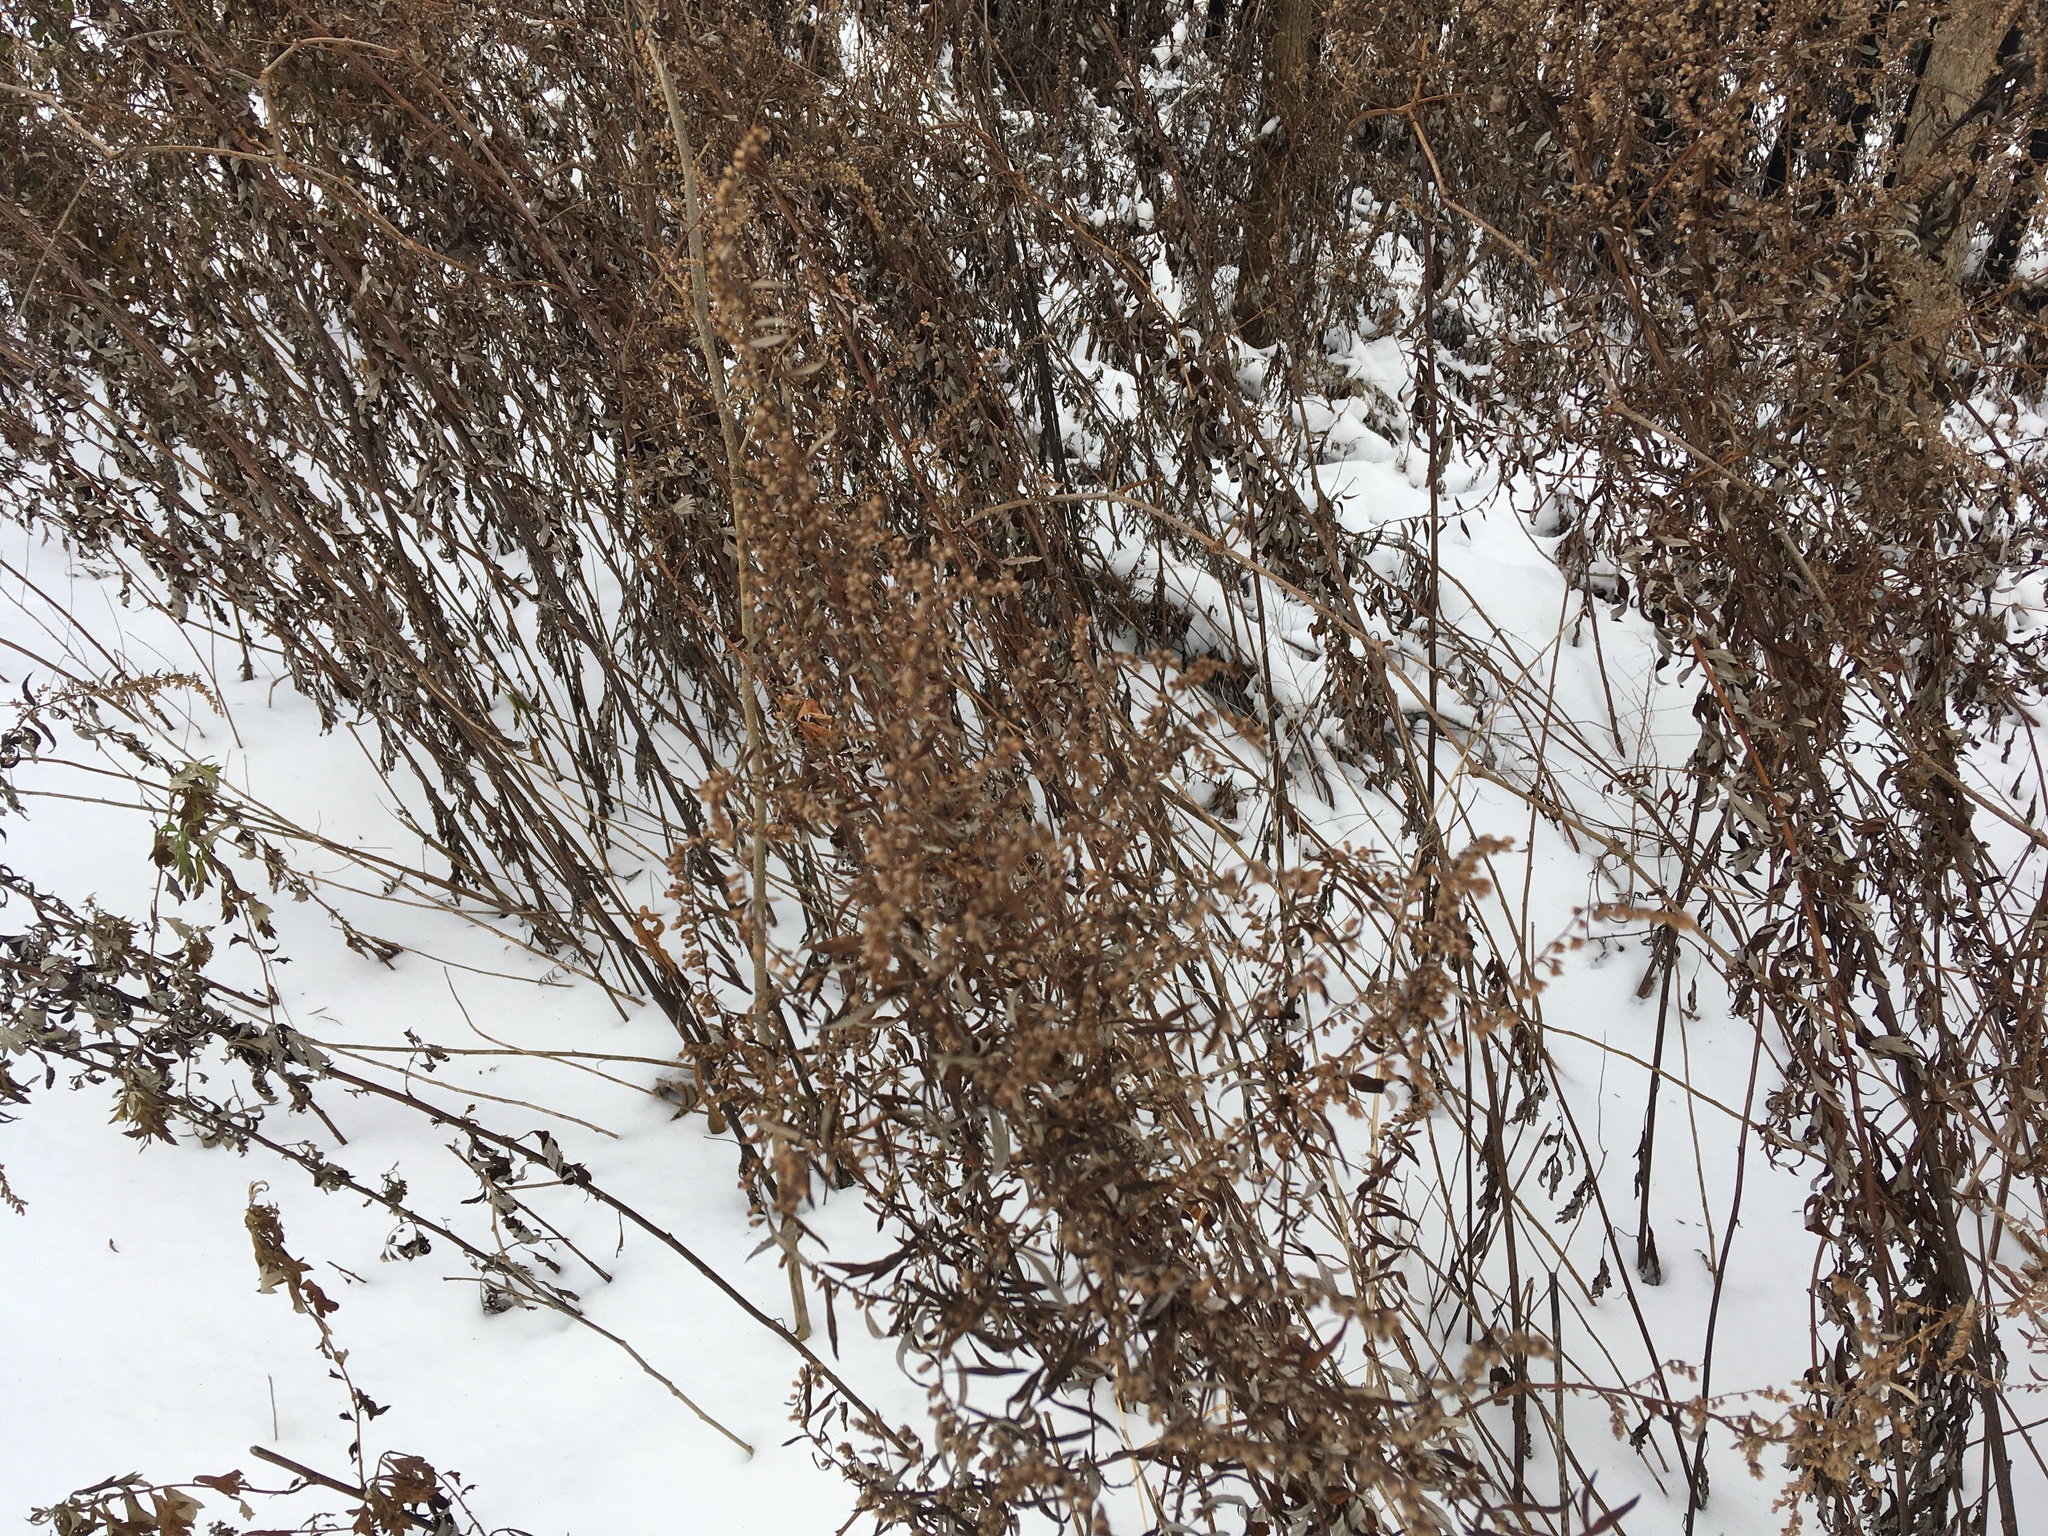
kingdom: Plantae
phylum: Tracheophyta
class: Magnoliopsida
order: Asterales
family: Asteraceae
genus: Artemisia
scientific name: Artemisia vulgaris
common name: Mugwort
